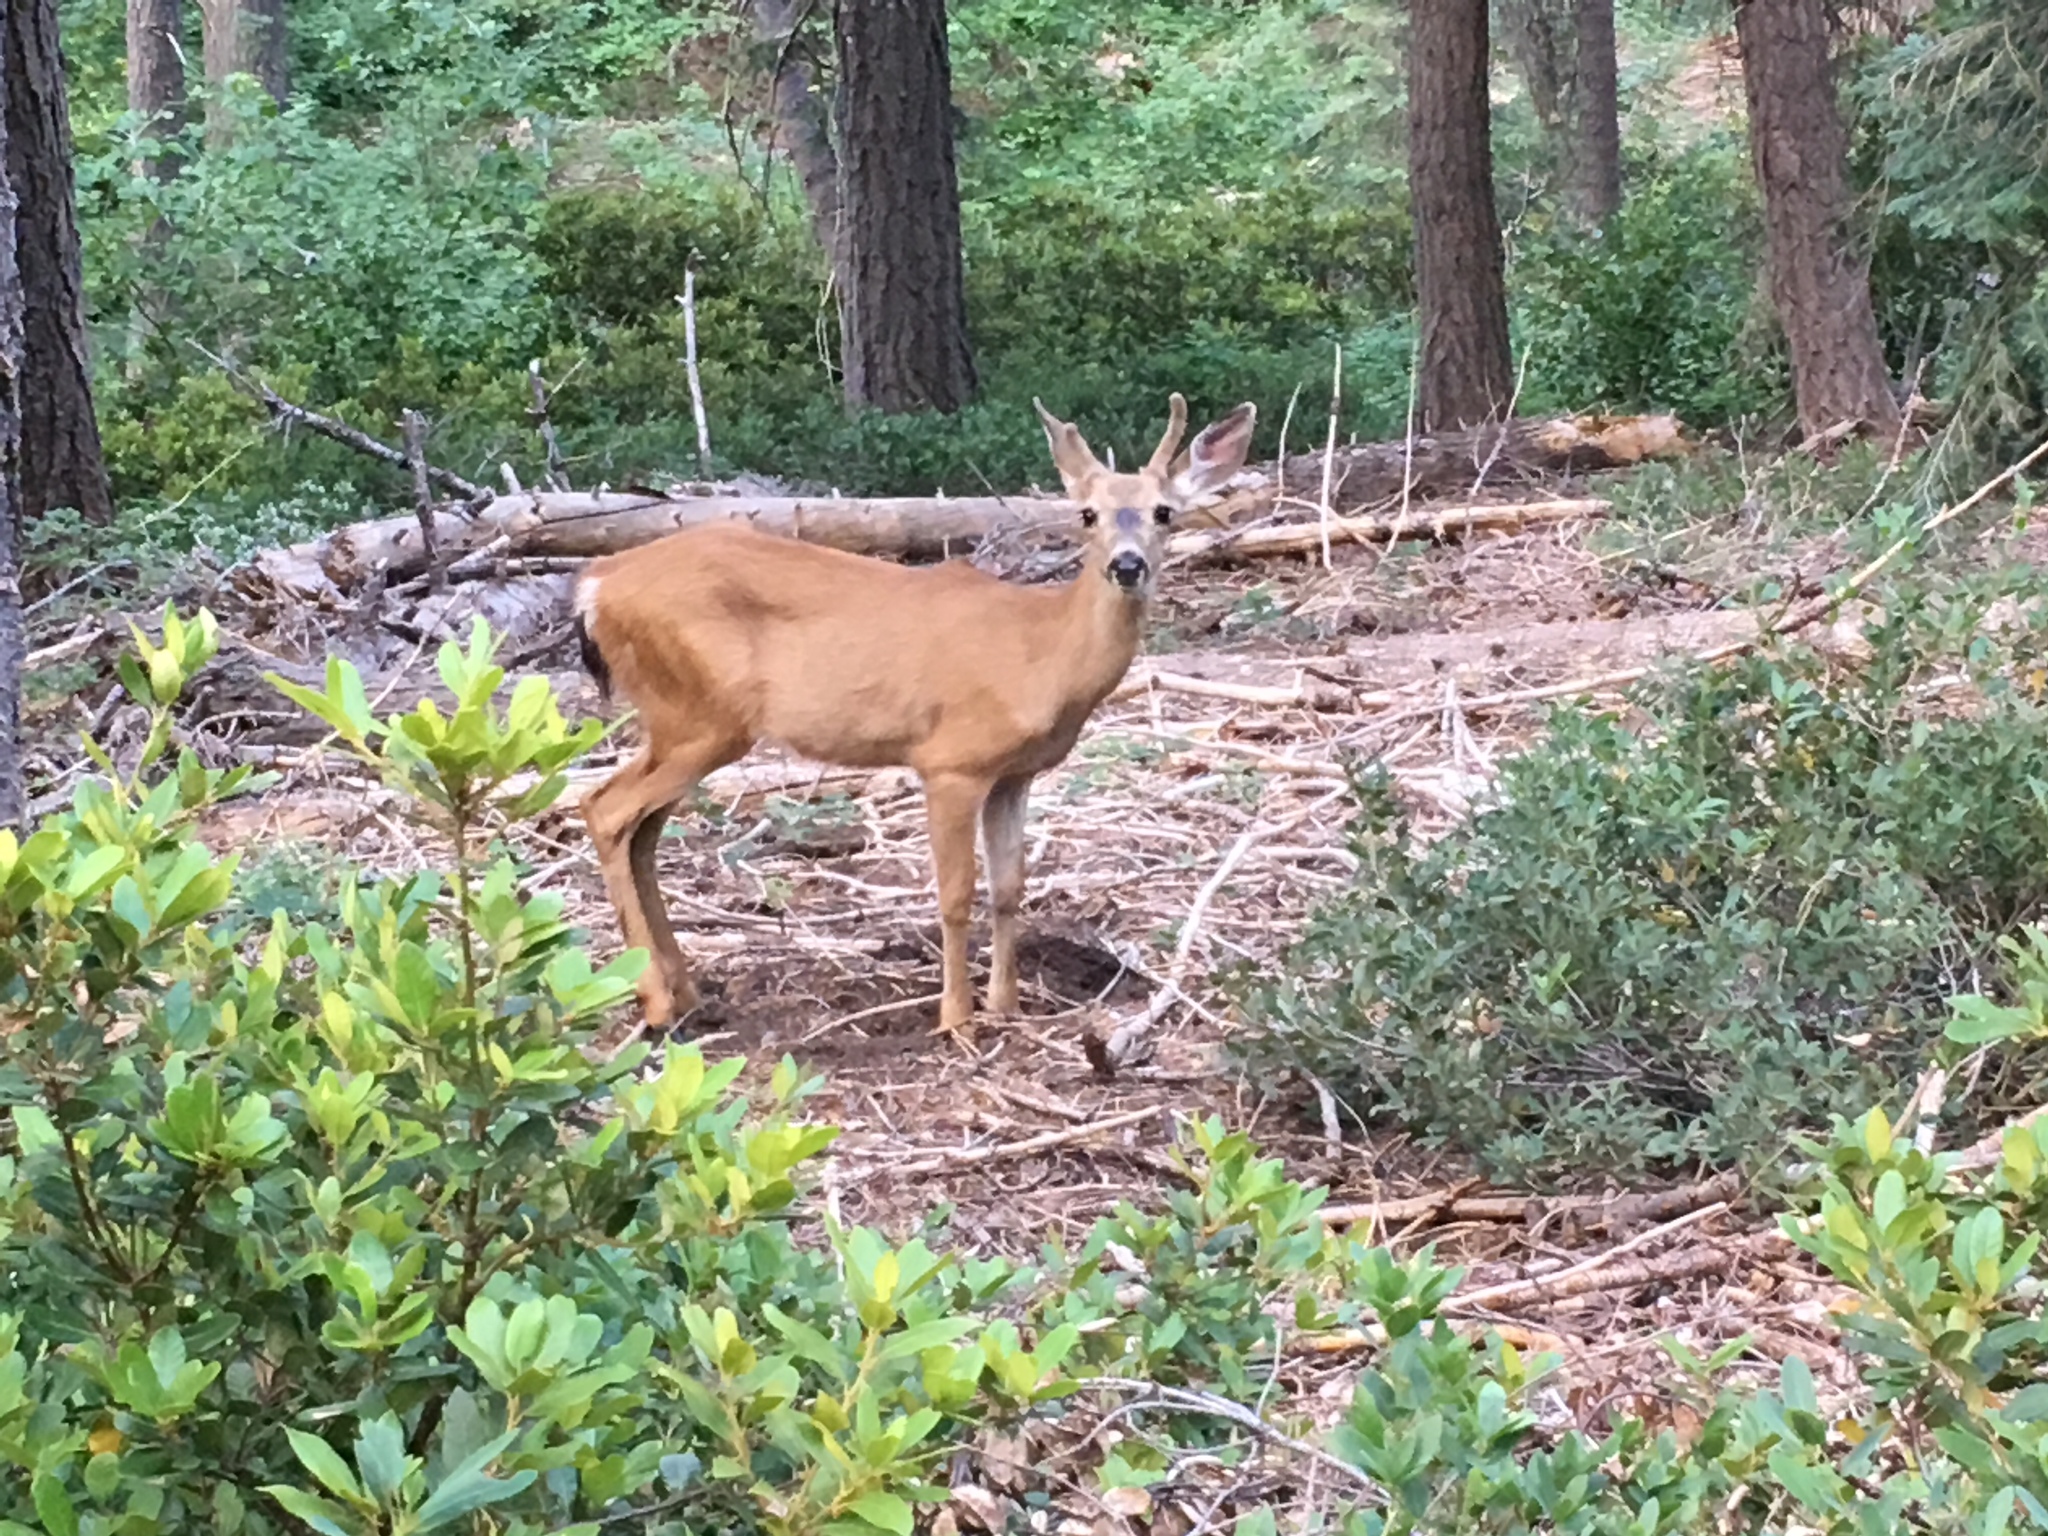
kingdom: Animalia
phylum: Chordata
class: Mammalia
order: Artiodactyla
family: Cervidae
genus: Odocoileus
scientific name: Odocoileus hemionus
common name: Mule deer
